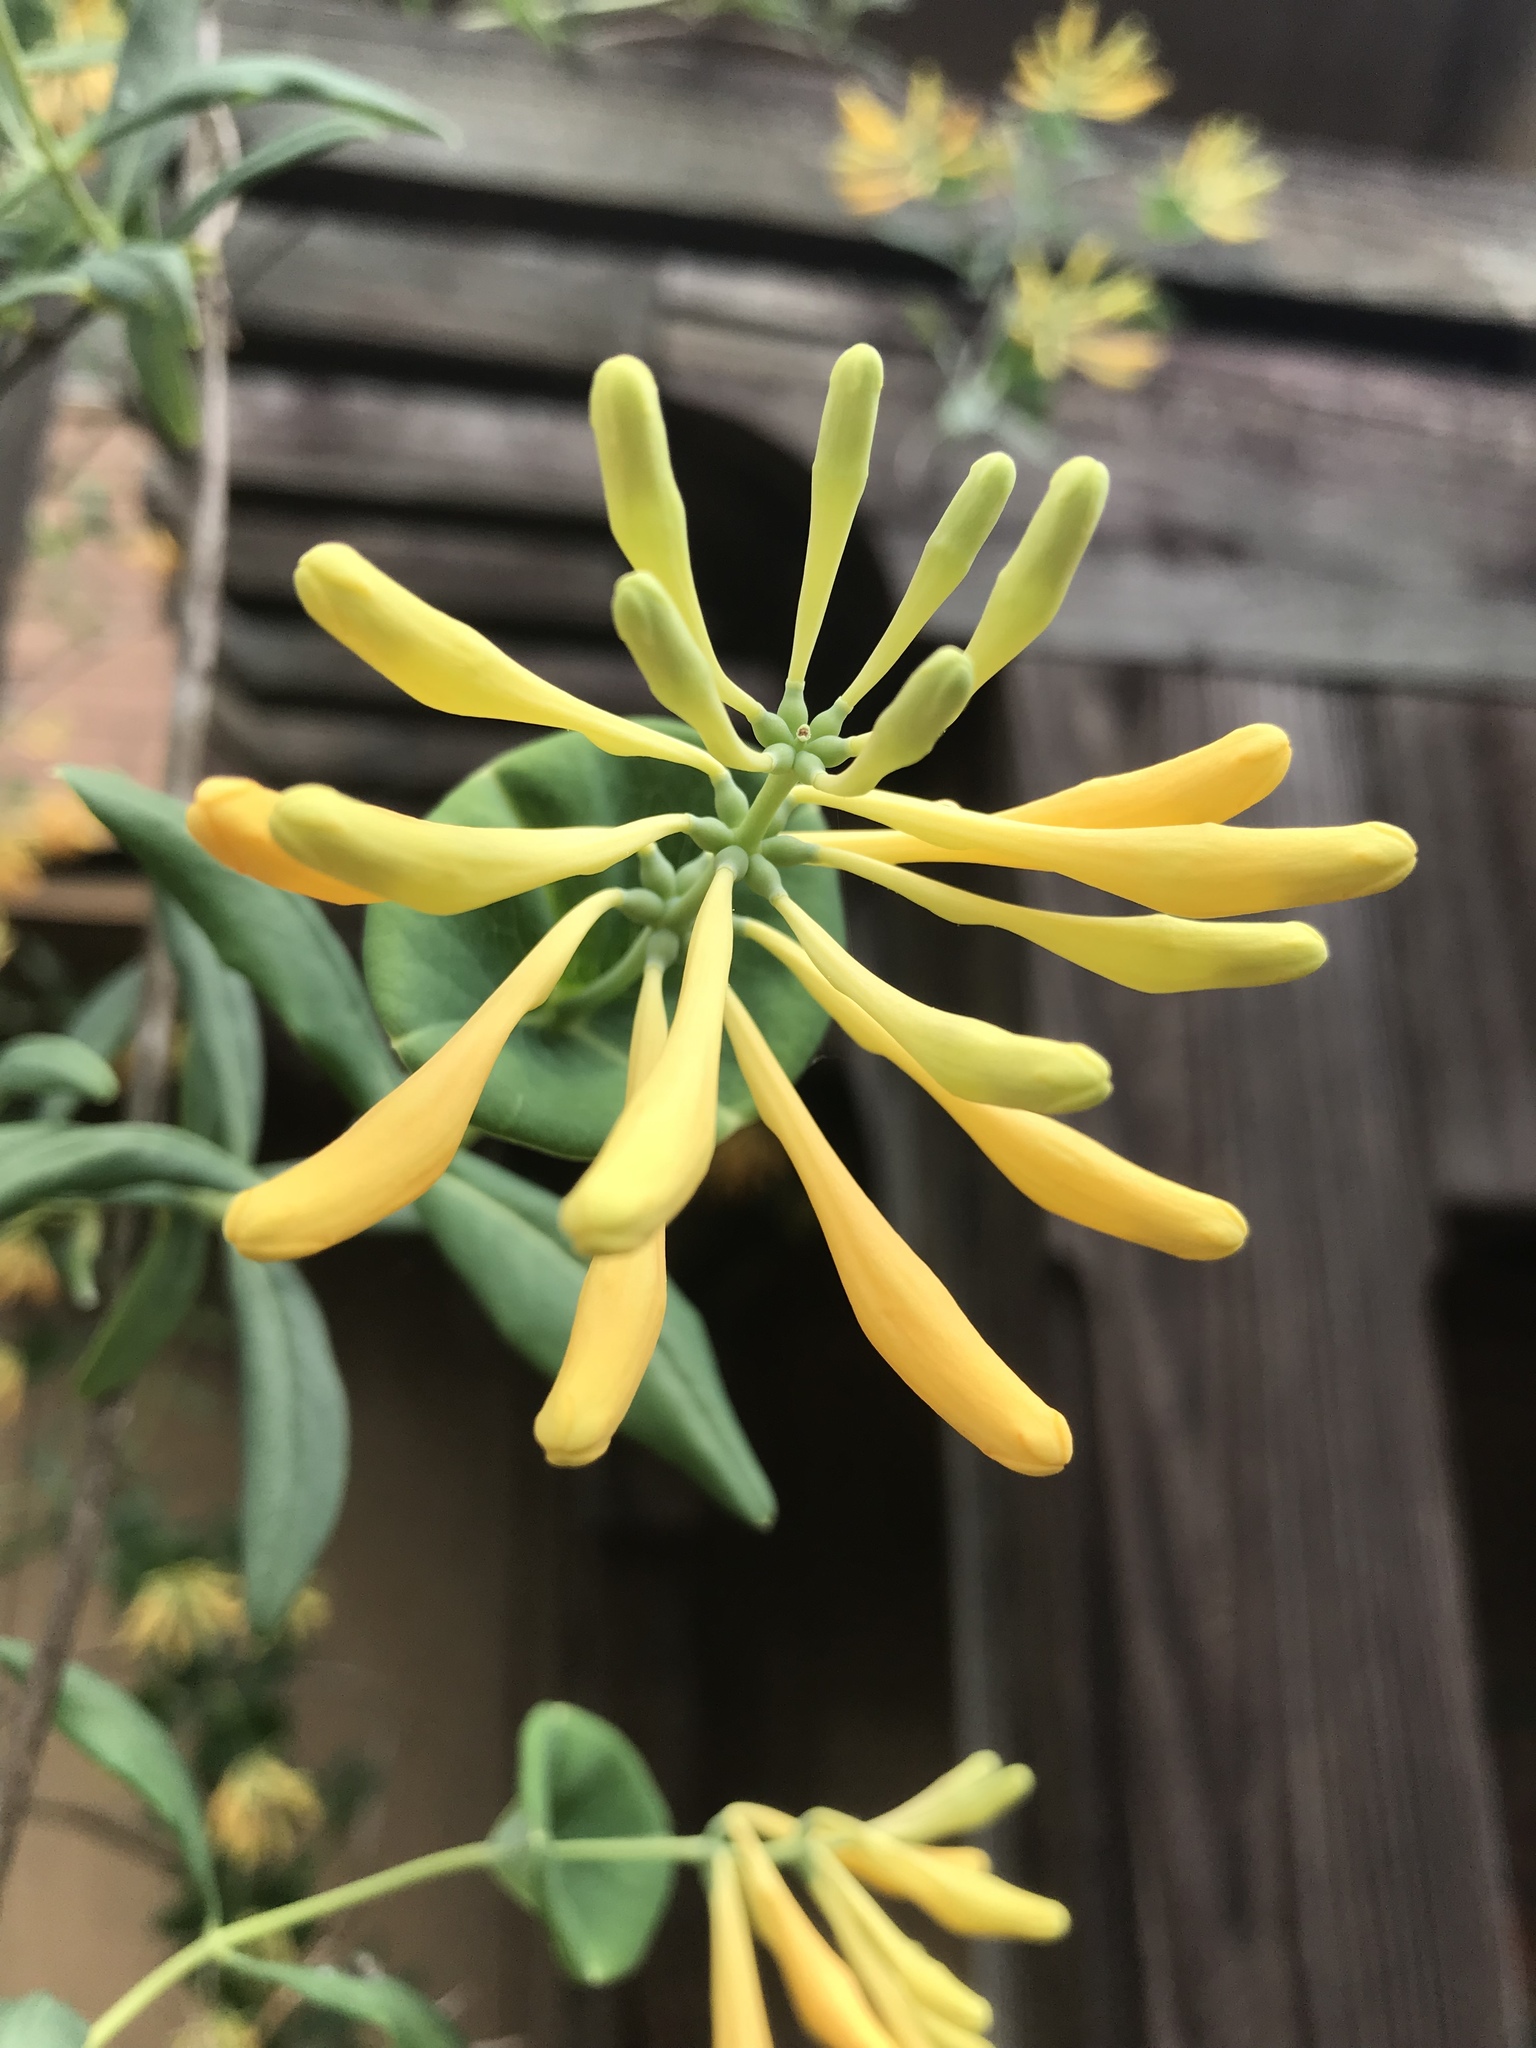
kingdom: Plantae
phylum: Tracheophyta
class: Magnoliopsida
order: Dipsacales
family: Caprifoliaceae
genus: Lonicera
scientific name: Lonicera sempervirens
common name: Coral honeysuckle
